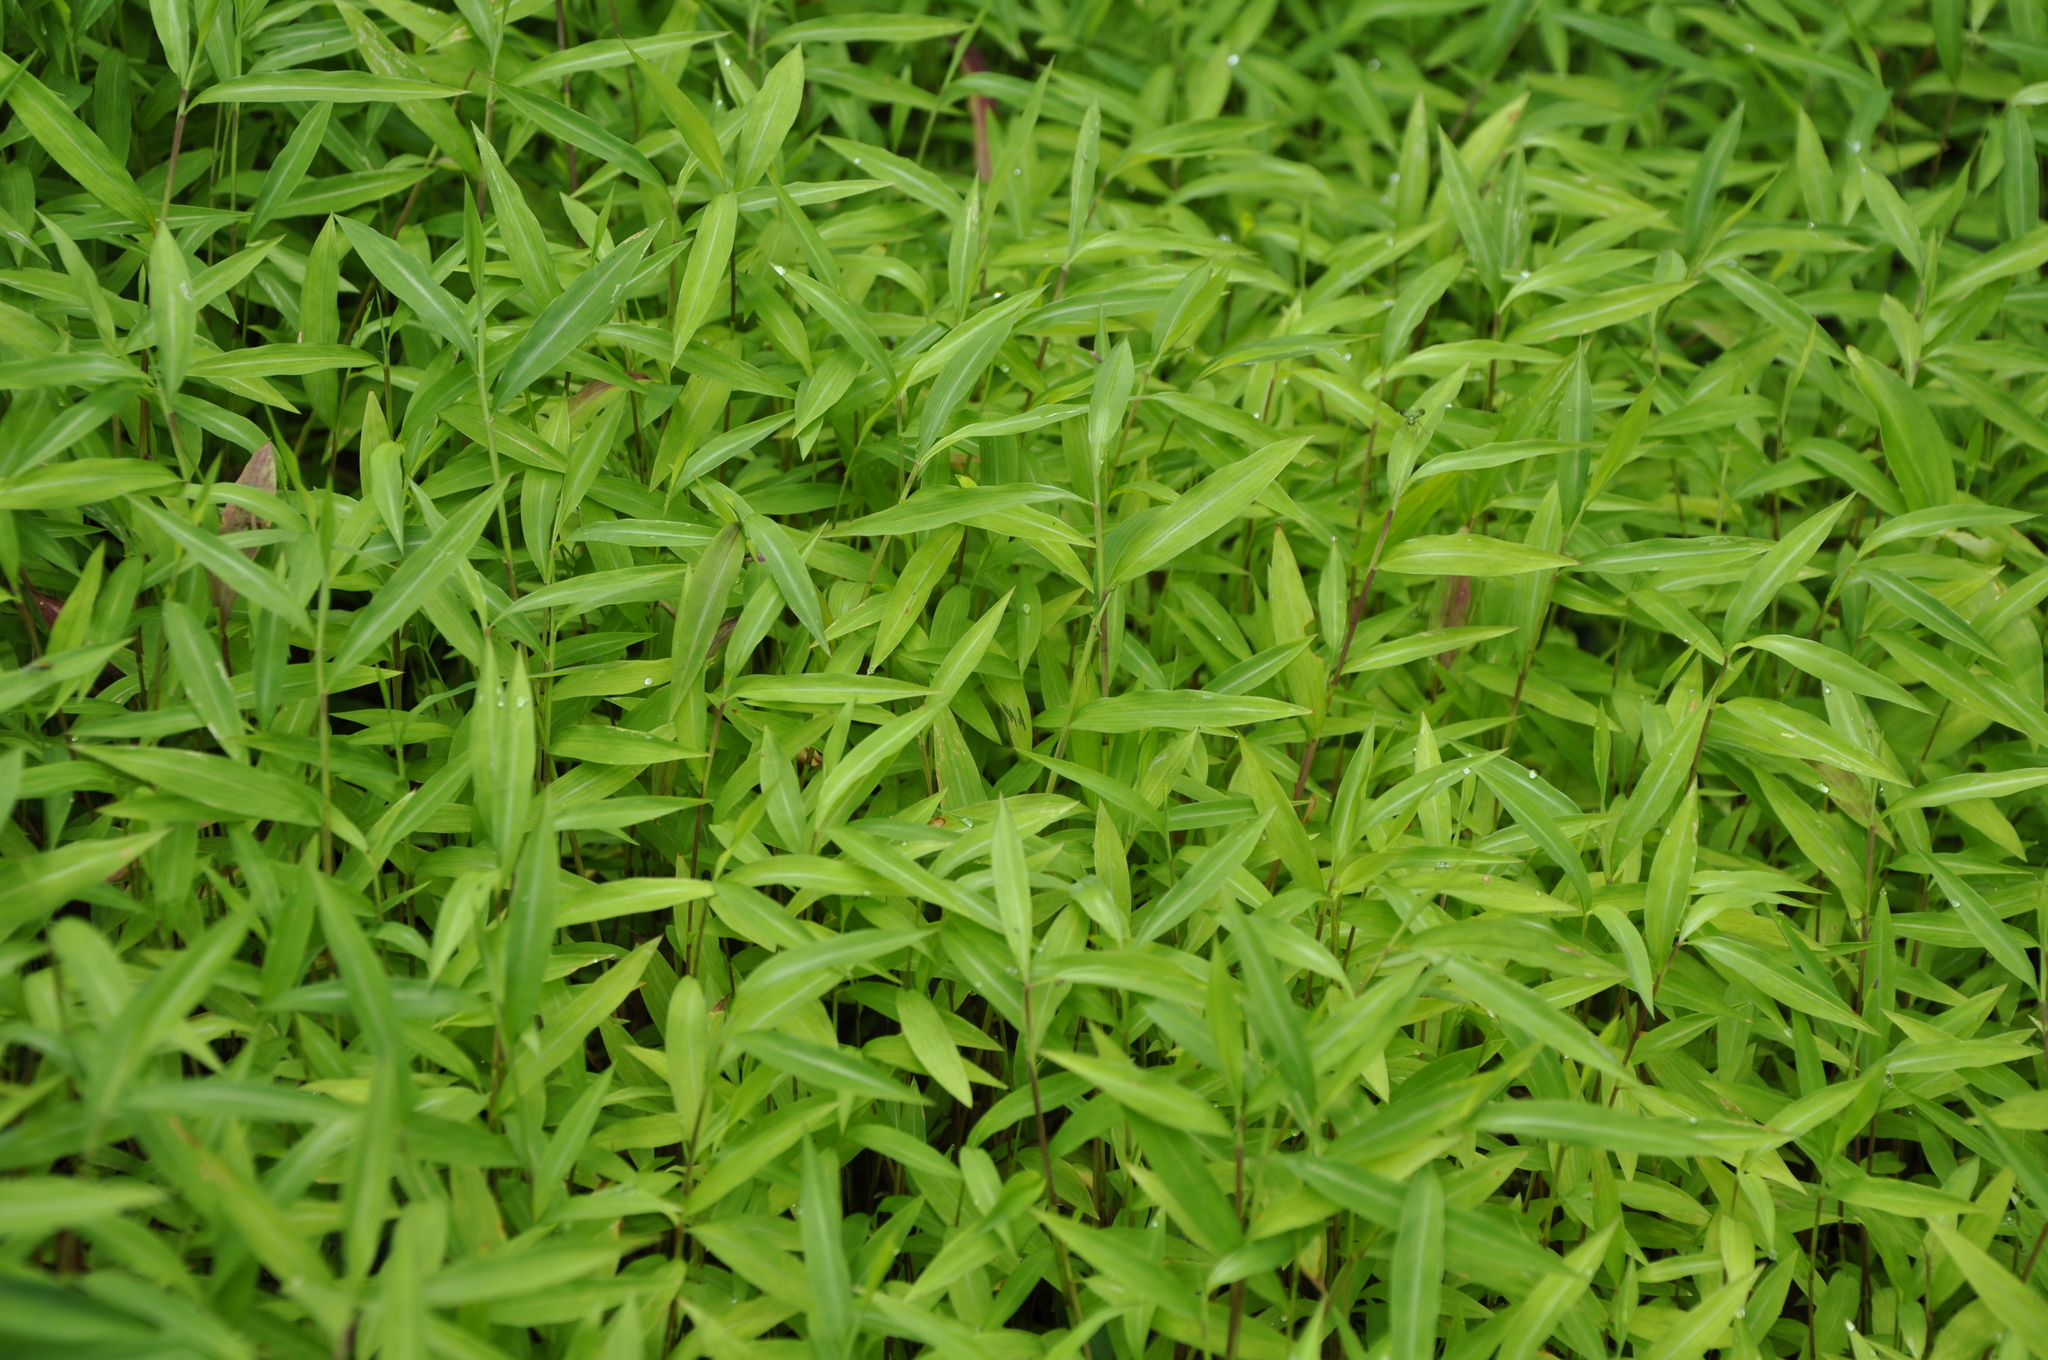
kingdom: Plantae
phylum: Tracheophyta
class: Liliopsida
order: Poales
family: Poaceae
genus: Microstegium
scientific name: Microstegium vimineum
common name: Japanese stiltgrass
